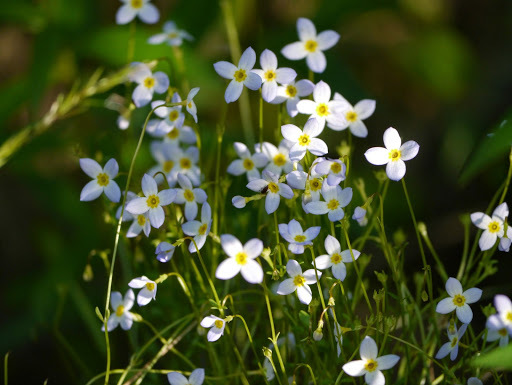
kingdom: Plantae
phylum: Tracheophyta
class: Magnoliopsida
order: Gentianales
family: Rubiaceae
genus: Houstonia
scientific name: Houstonia caerulea
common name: Bluets
